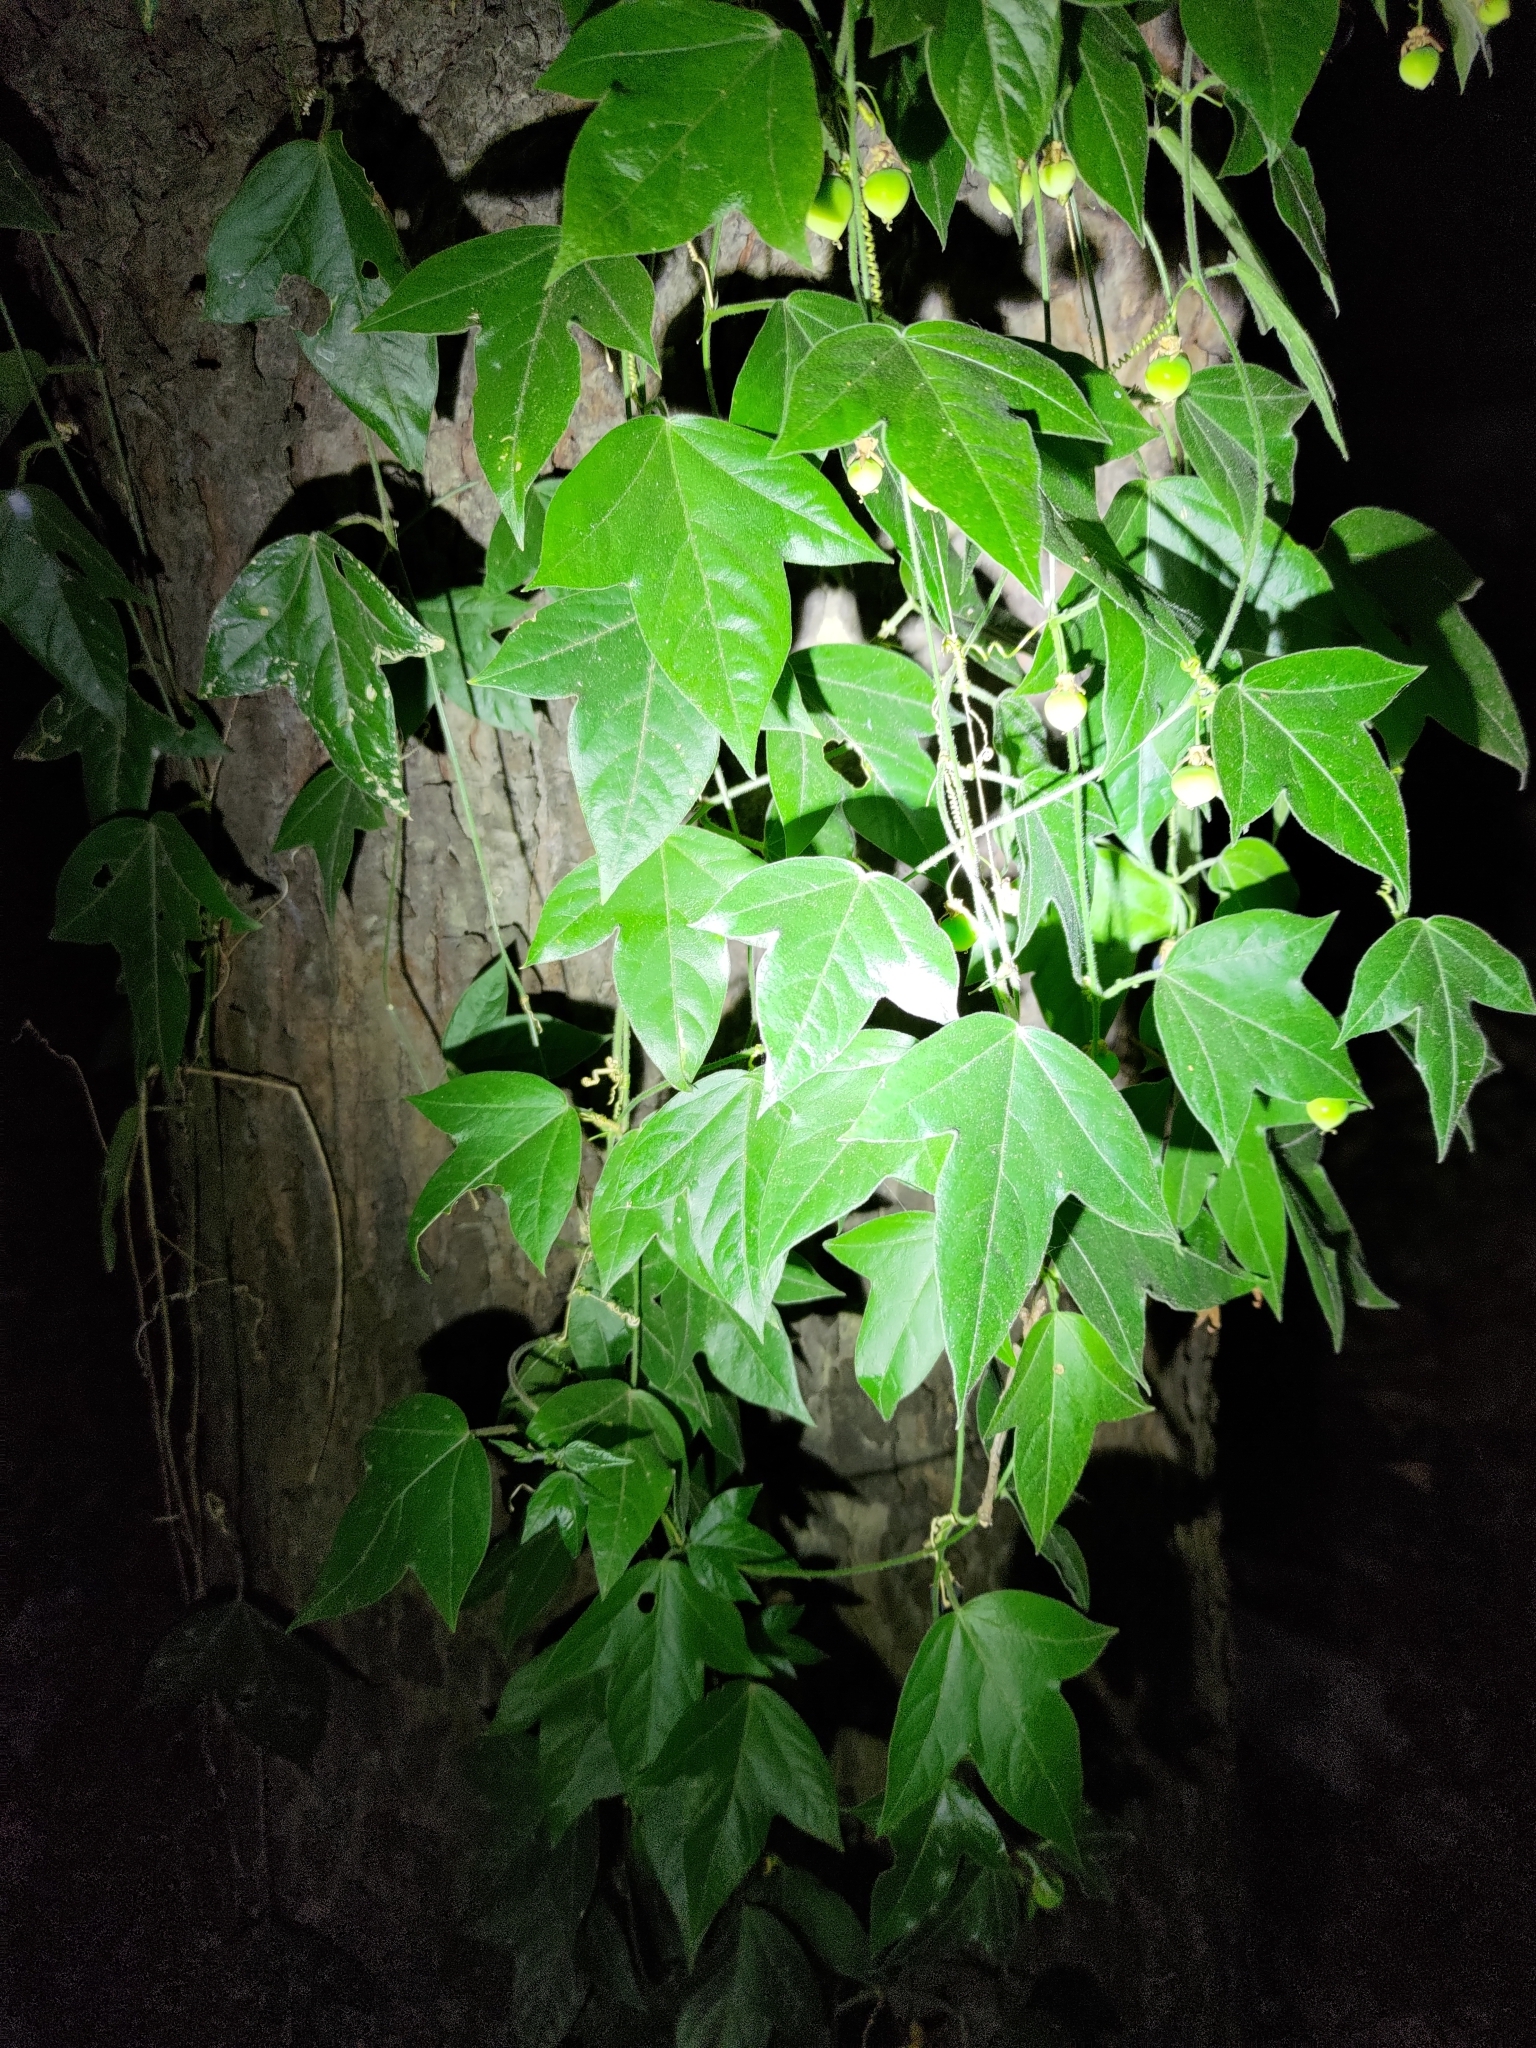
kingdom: Plantae
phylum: Tracheophyta
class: Magnoliopsida
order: Malpighiales
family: Passifloraceae
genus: Passiflora
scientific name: Passiflora suberosa
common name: Wild passionfruit
